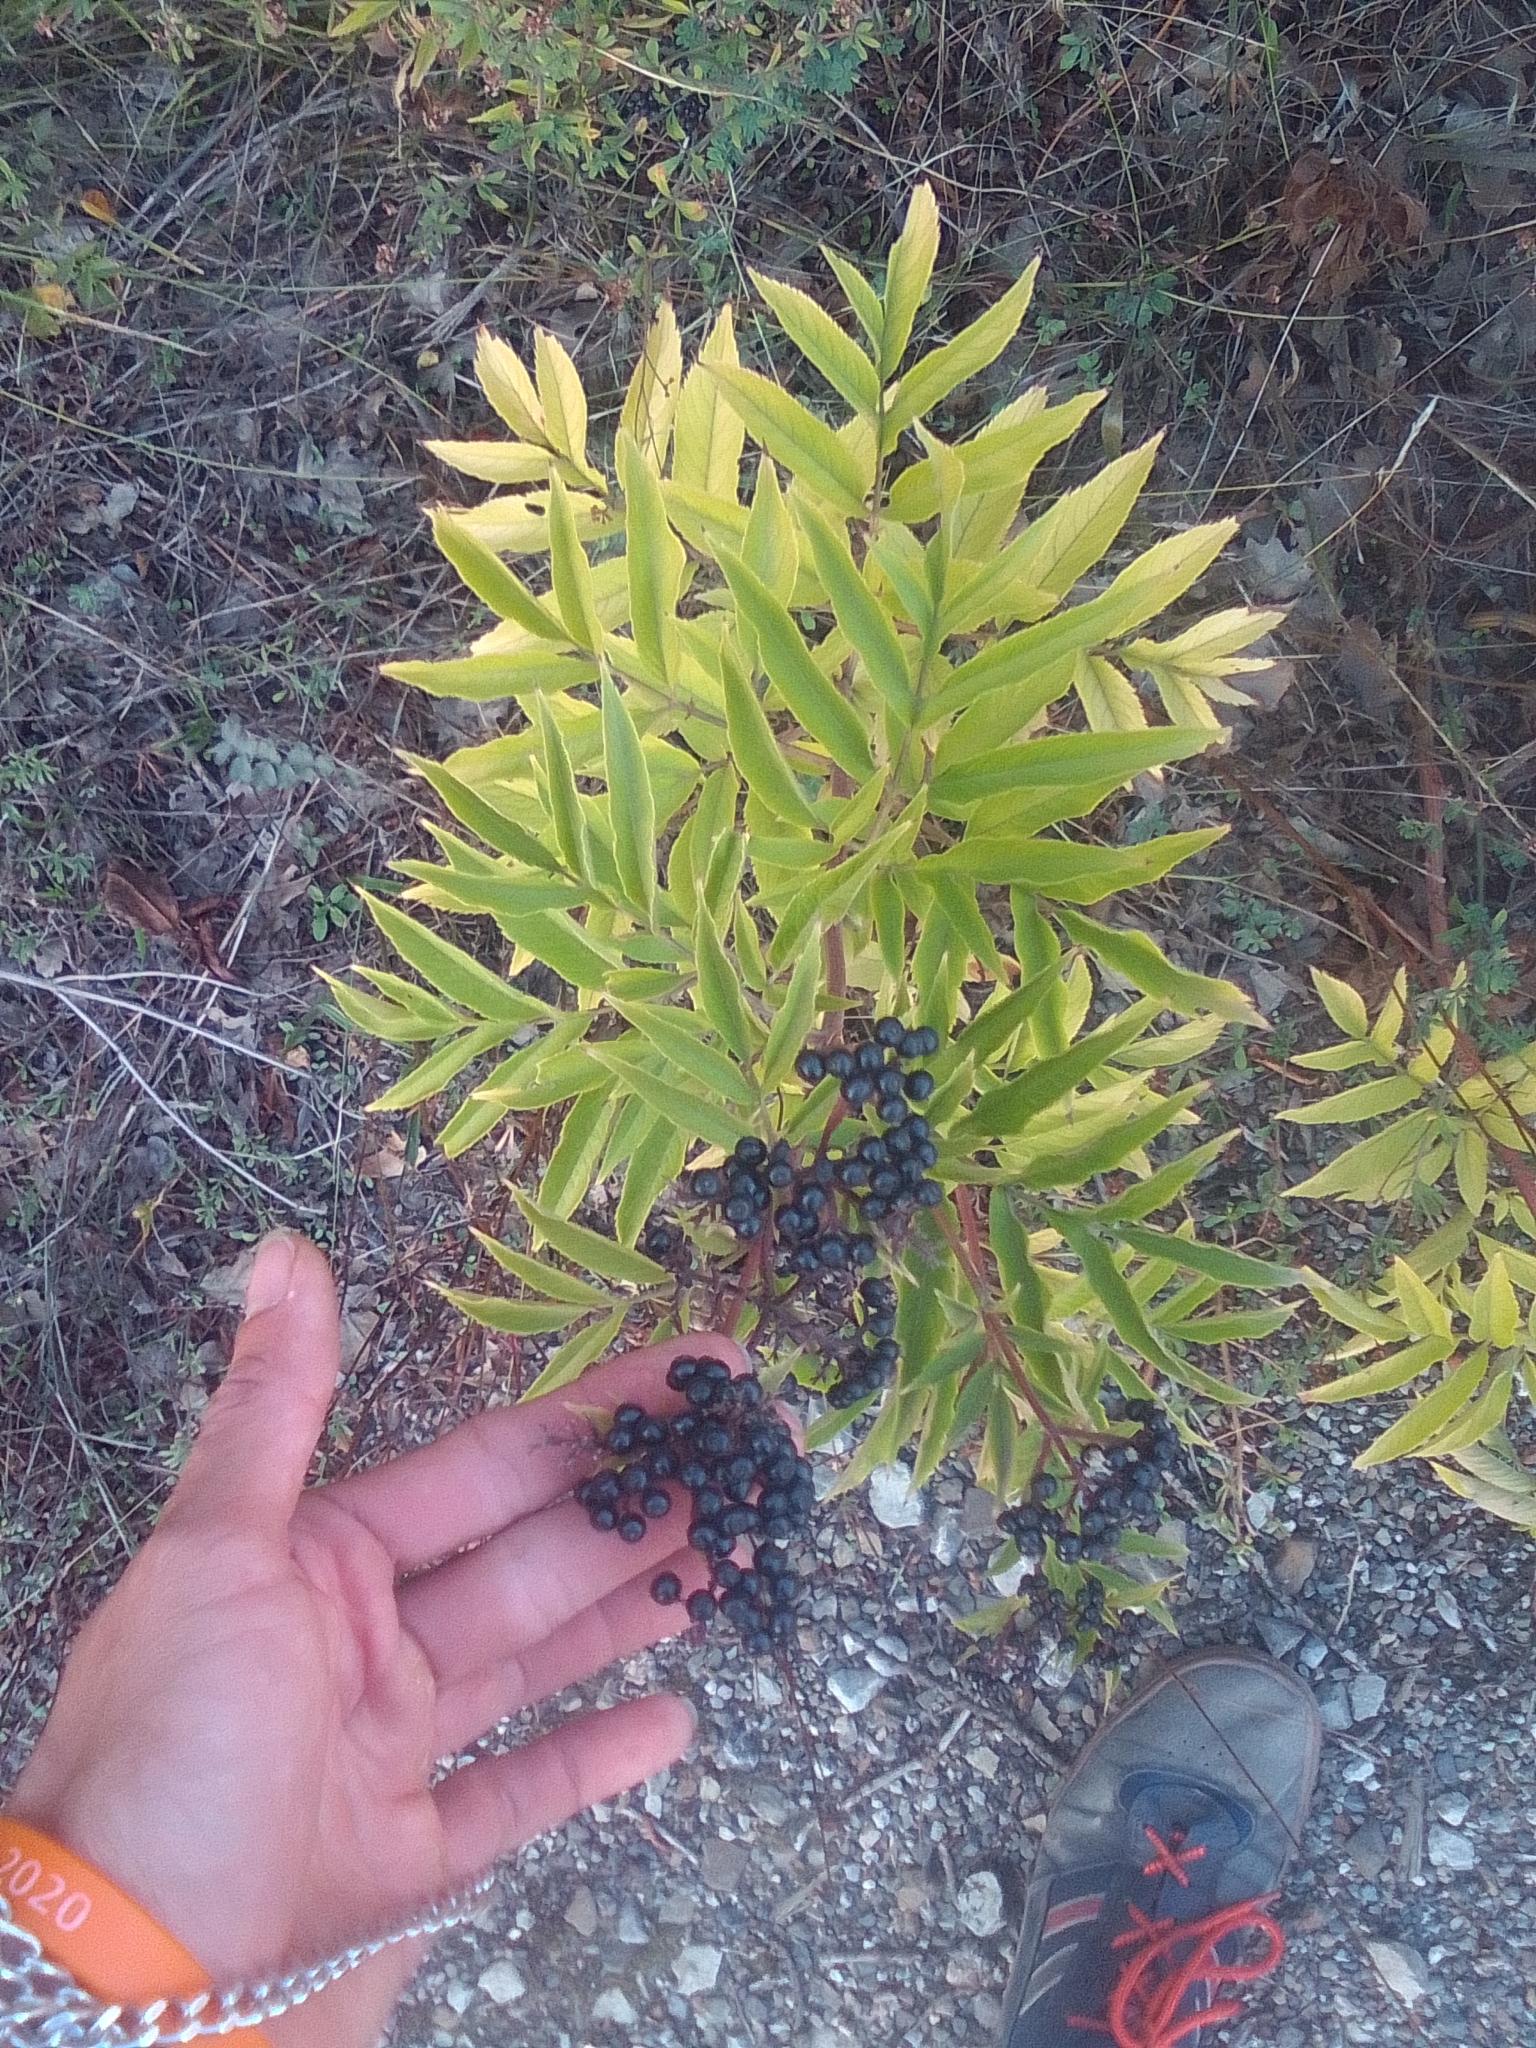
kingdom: Plantae
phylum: Tracheophyta
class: Magnoliopsida
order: Dipsacales
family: Viburnaceae
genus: Sambucus
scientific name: Sambucus ebulus
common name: Dwarf elder
